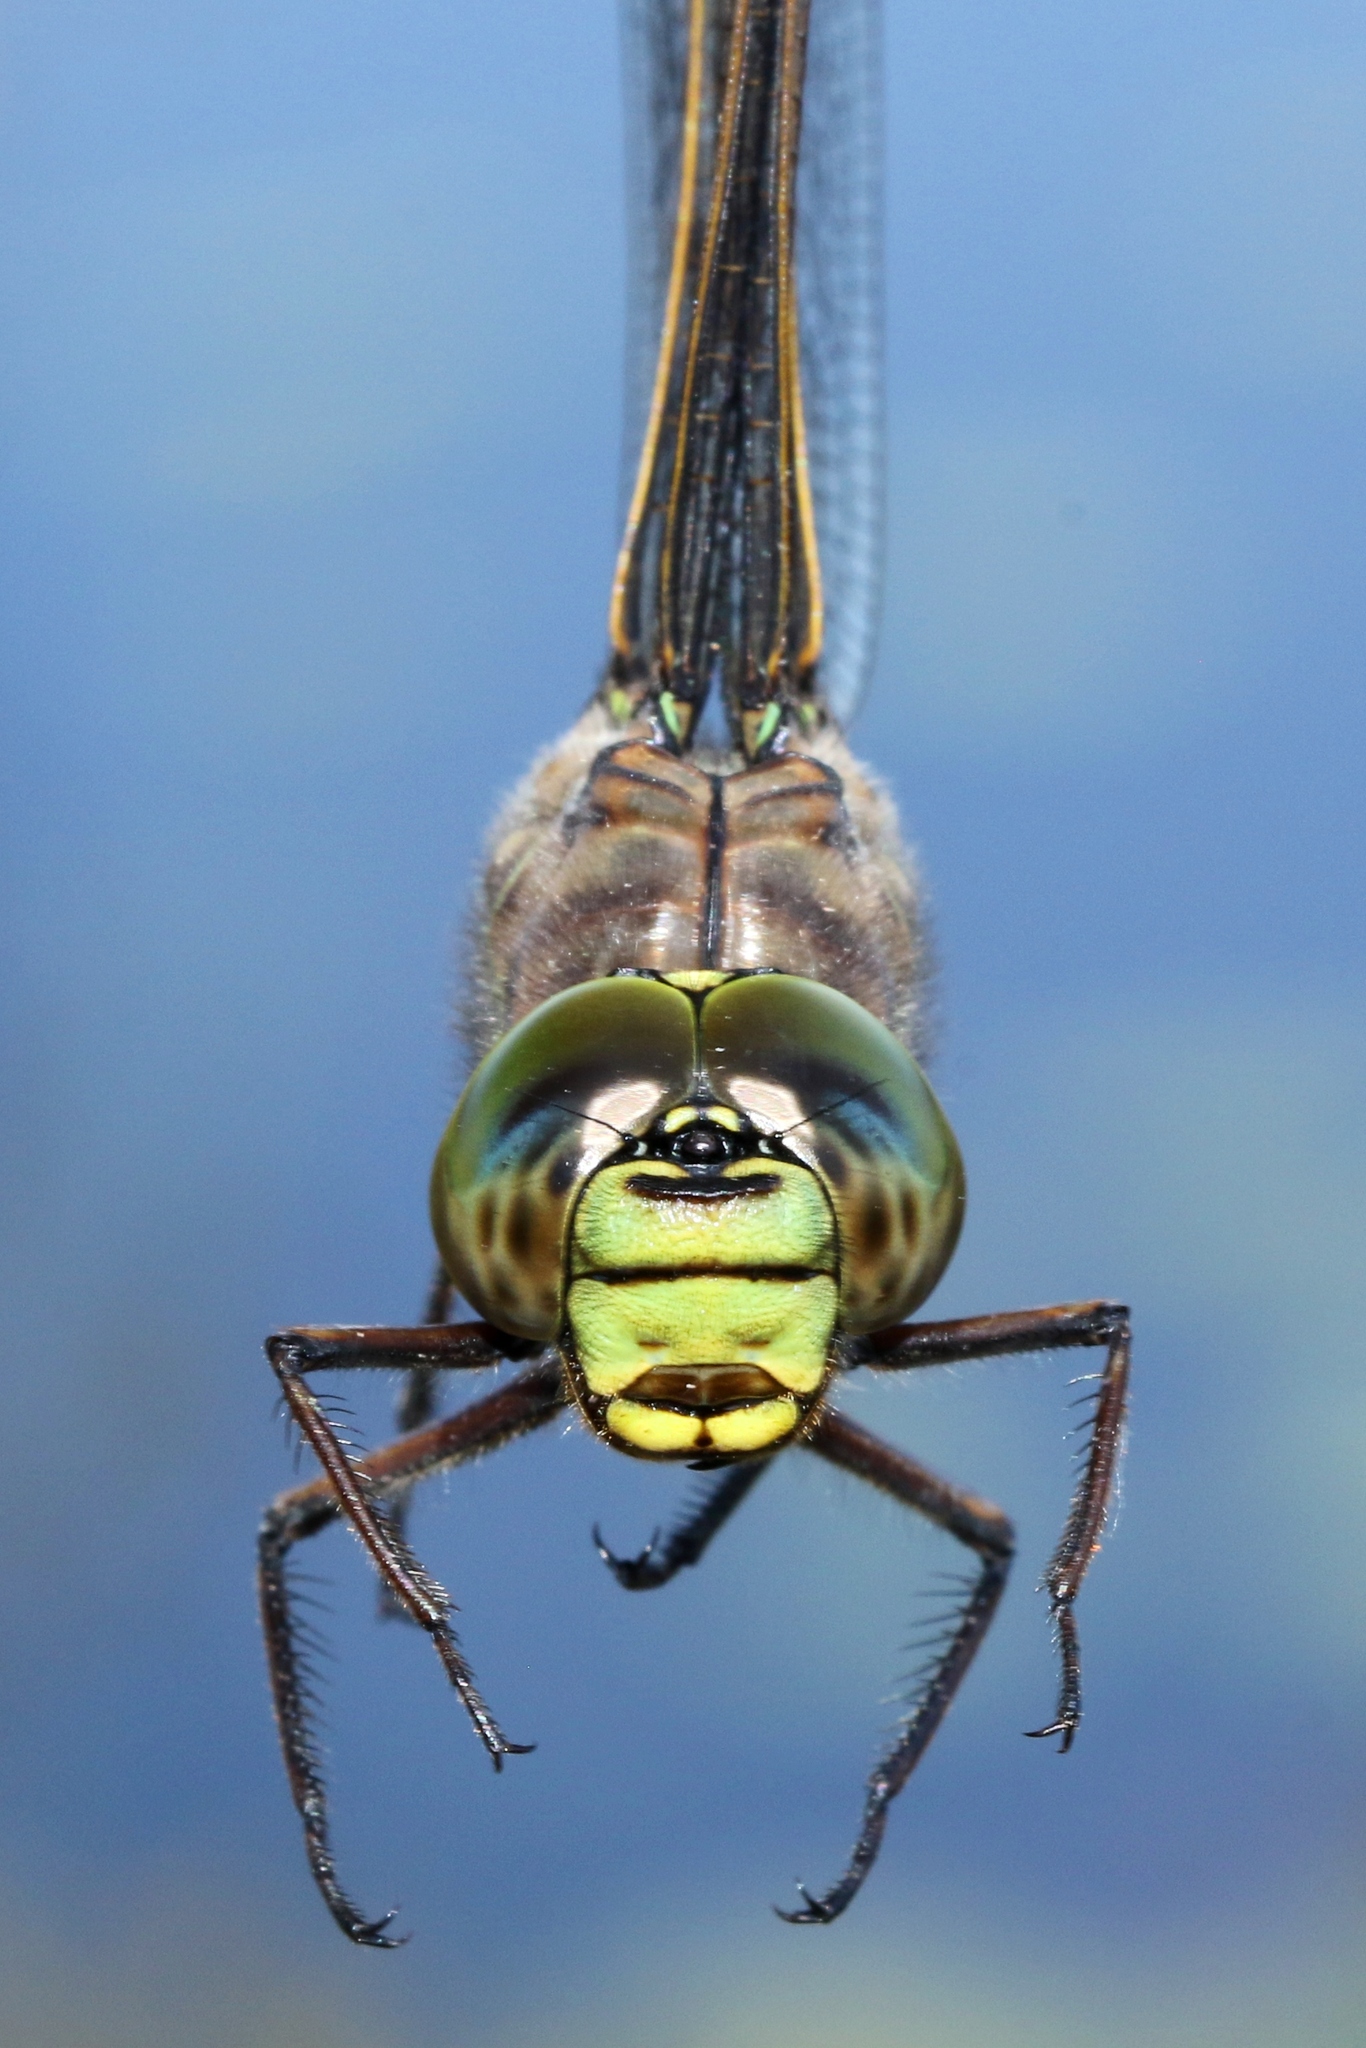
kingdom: Animalia
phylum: Arthropoda
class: Insecta
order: Odonata
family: Aeshnidae
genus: Aeshna
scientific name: Aeshna eremita
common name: Lake darner
